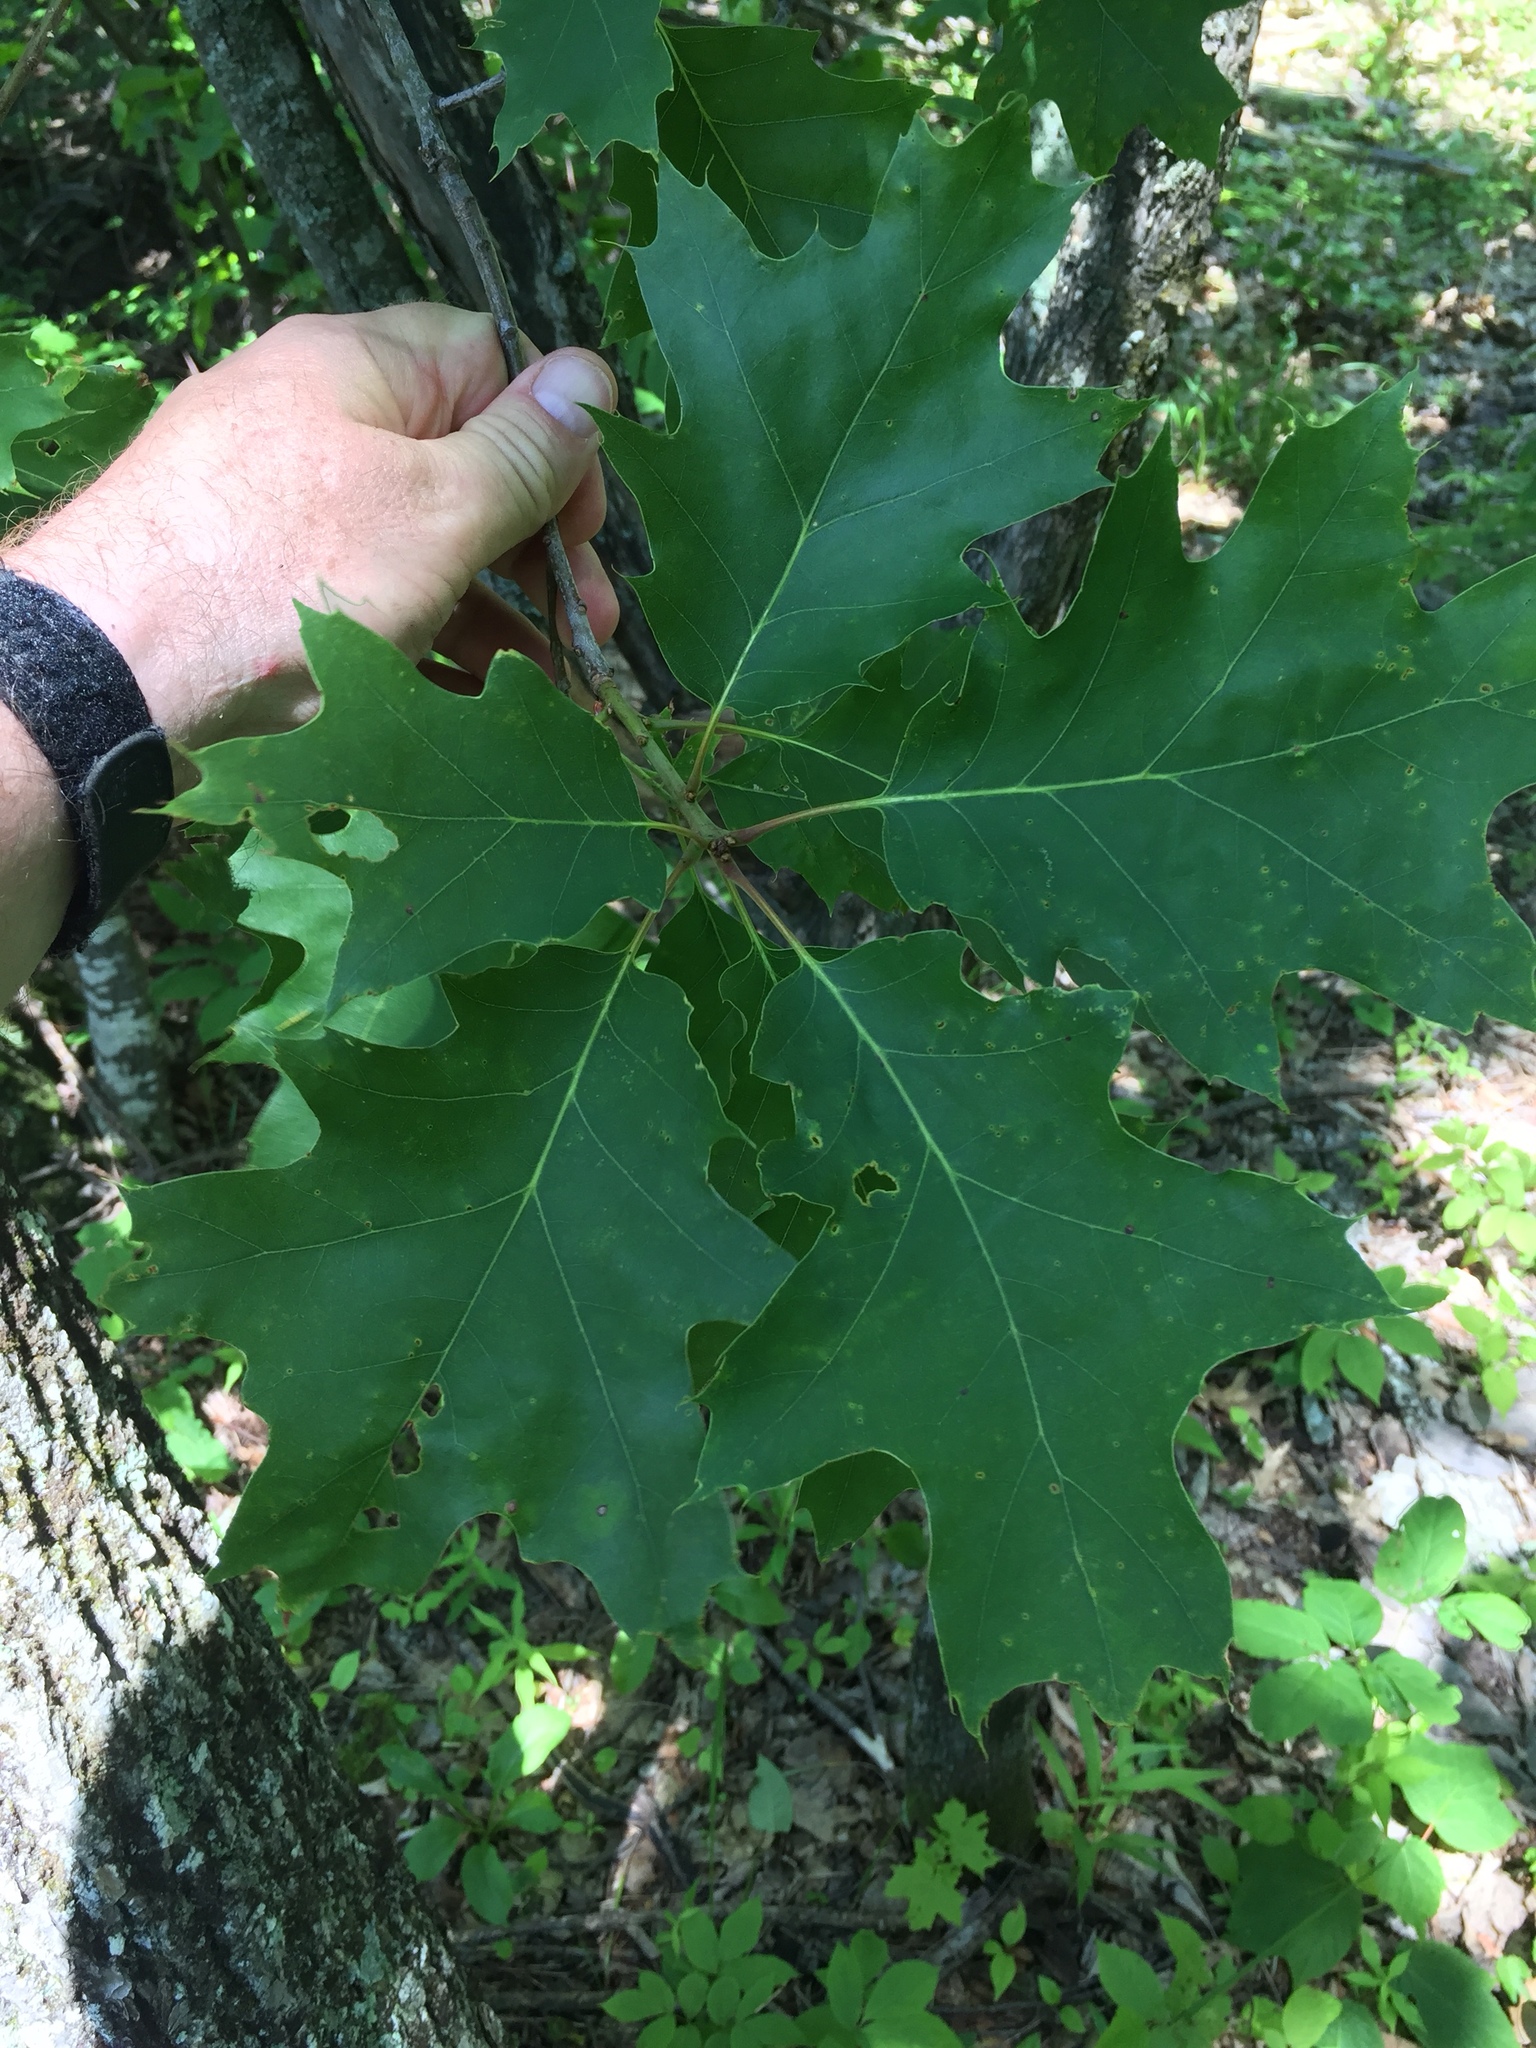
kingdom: Plantae
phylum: Tracheophyta
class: Magnoliopsida
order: Fagales
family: Fagaceae
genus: Quercus
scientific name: Quercus rubra
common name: Red oak
